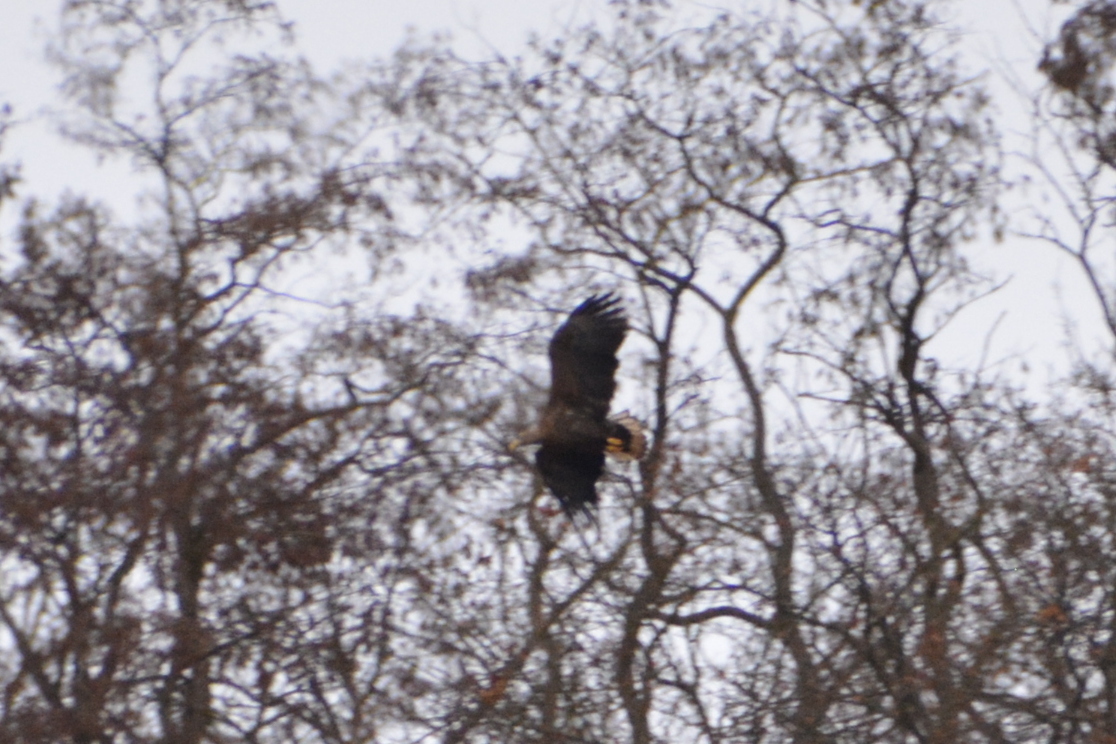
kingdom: Animalia
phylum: Chordata
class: Aves
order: Accipitriformes
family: Accipitridae
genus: Haliaeetus
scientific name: Haliaeetus albicilla
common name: White-tailed eagle
